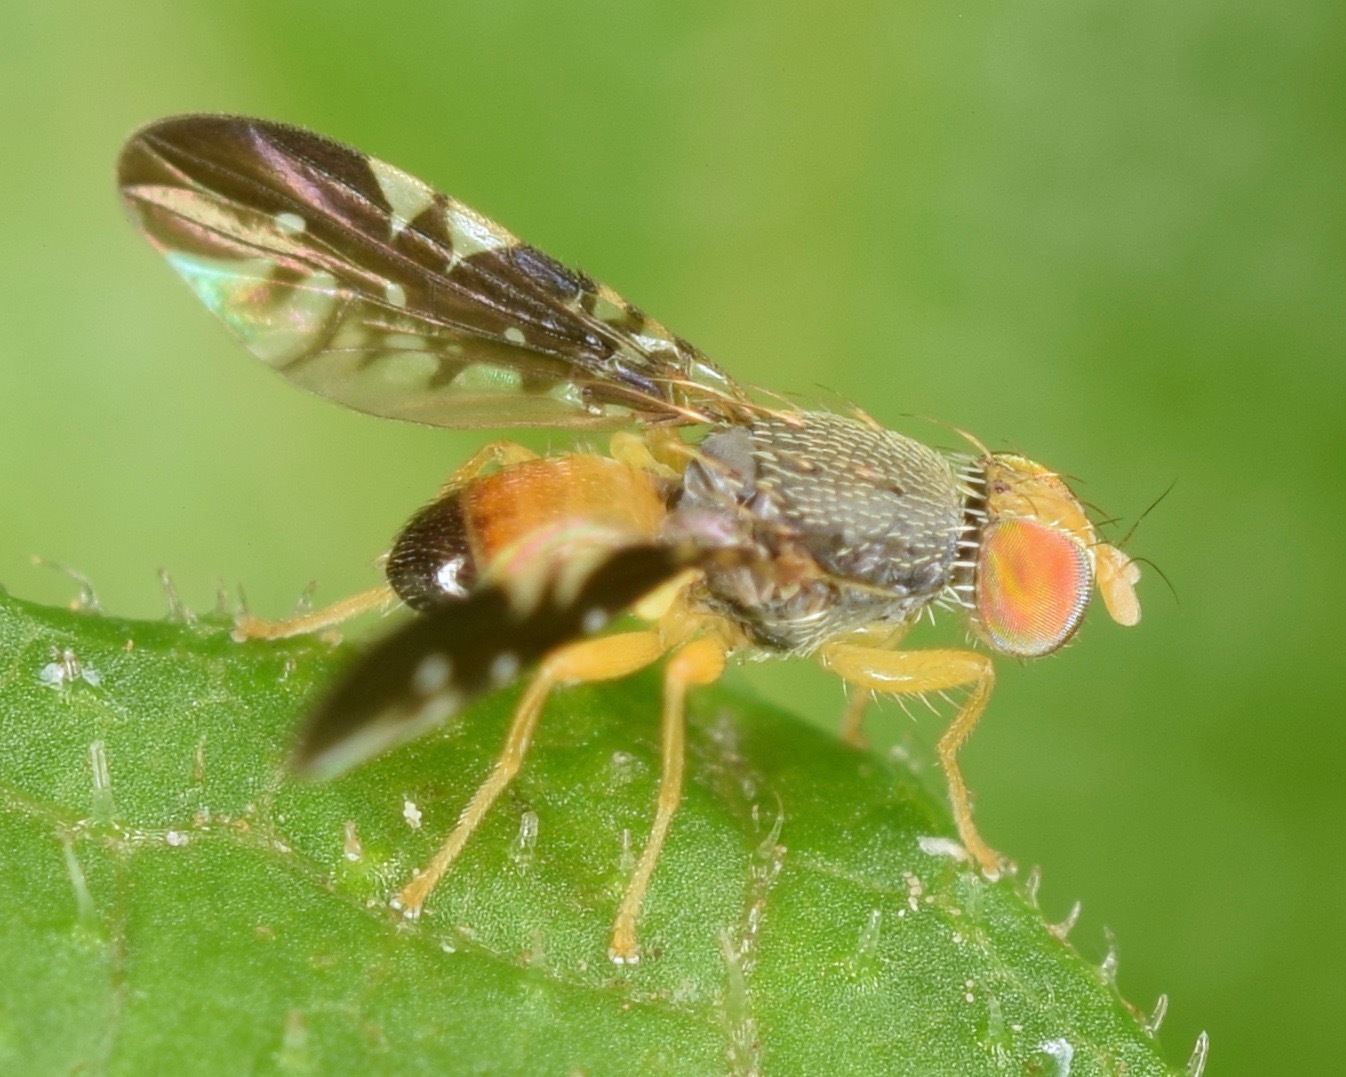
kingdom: Animalia
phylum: Arthropoda
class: Insecta
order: Diptera
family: Tephritidae
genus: Xanthaciura
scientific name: Xanthaciura tetraspina
